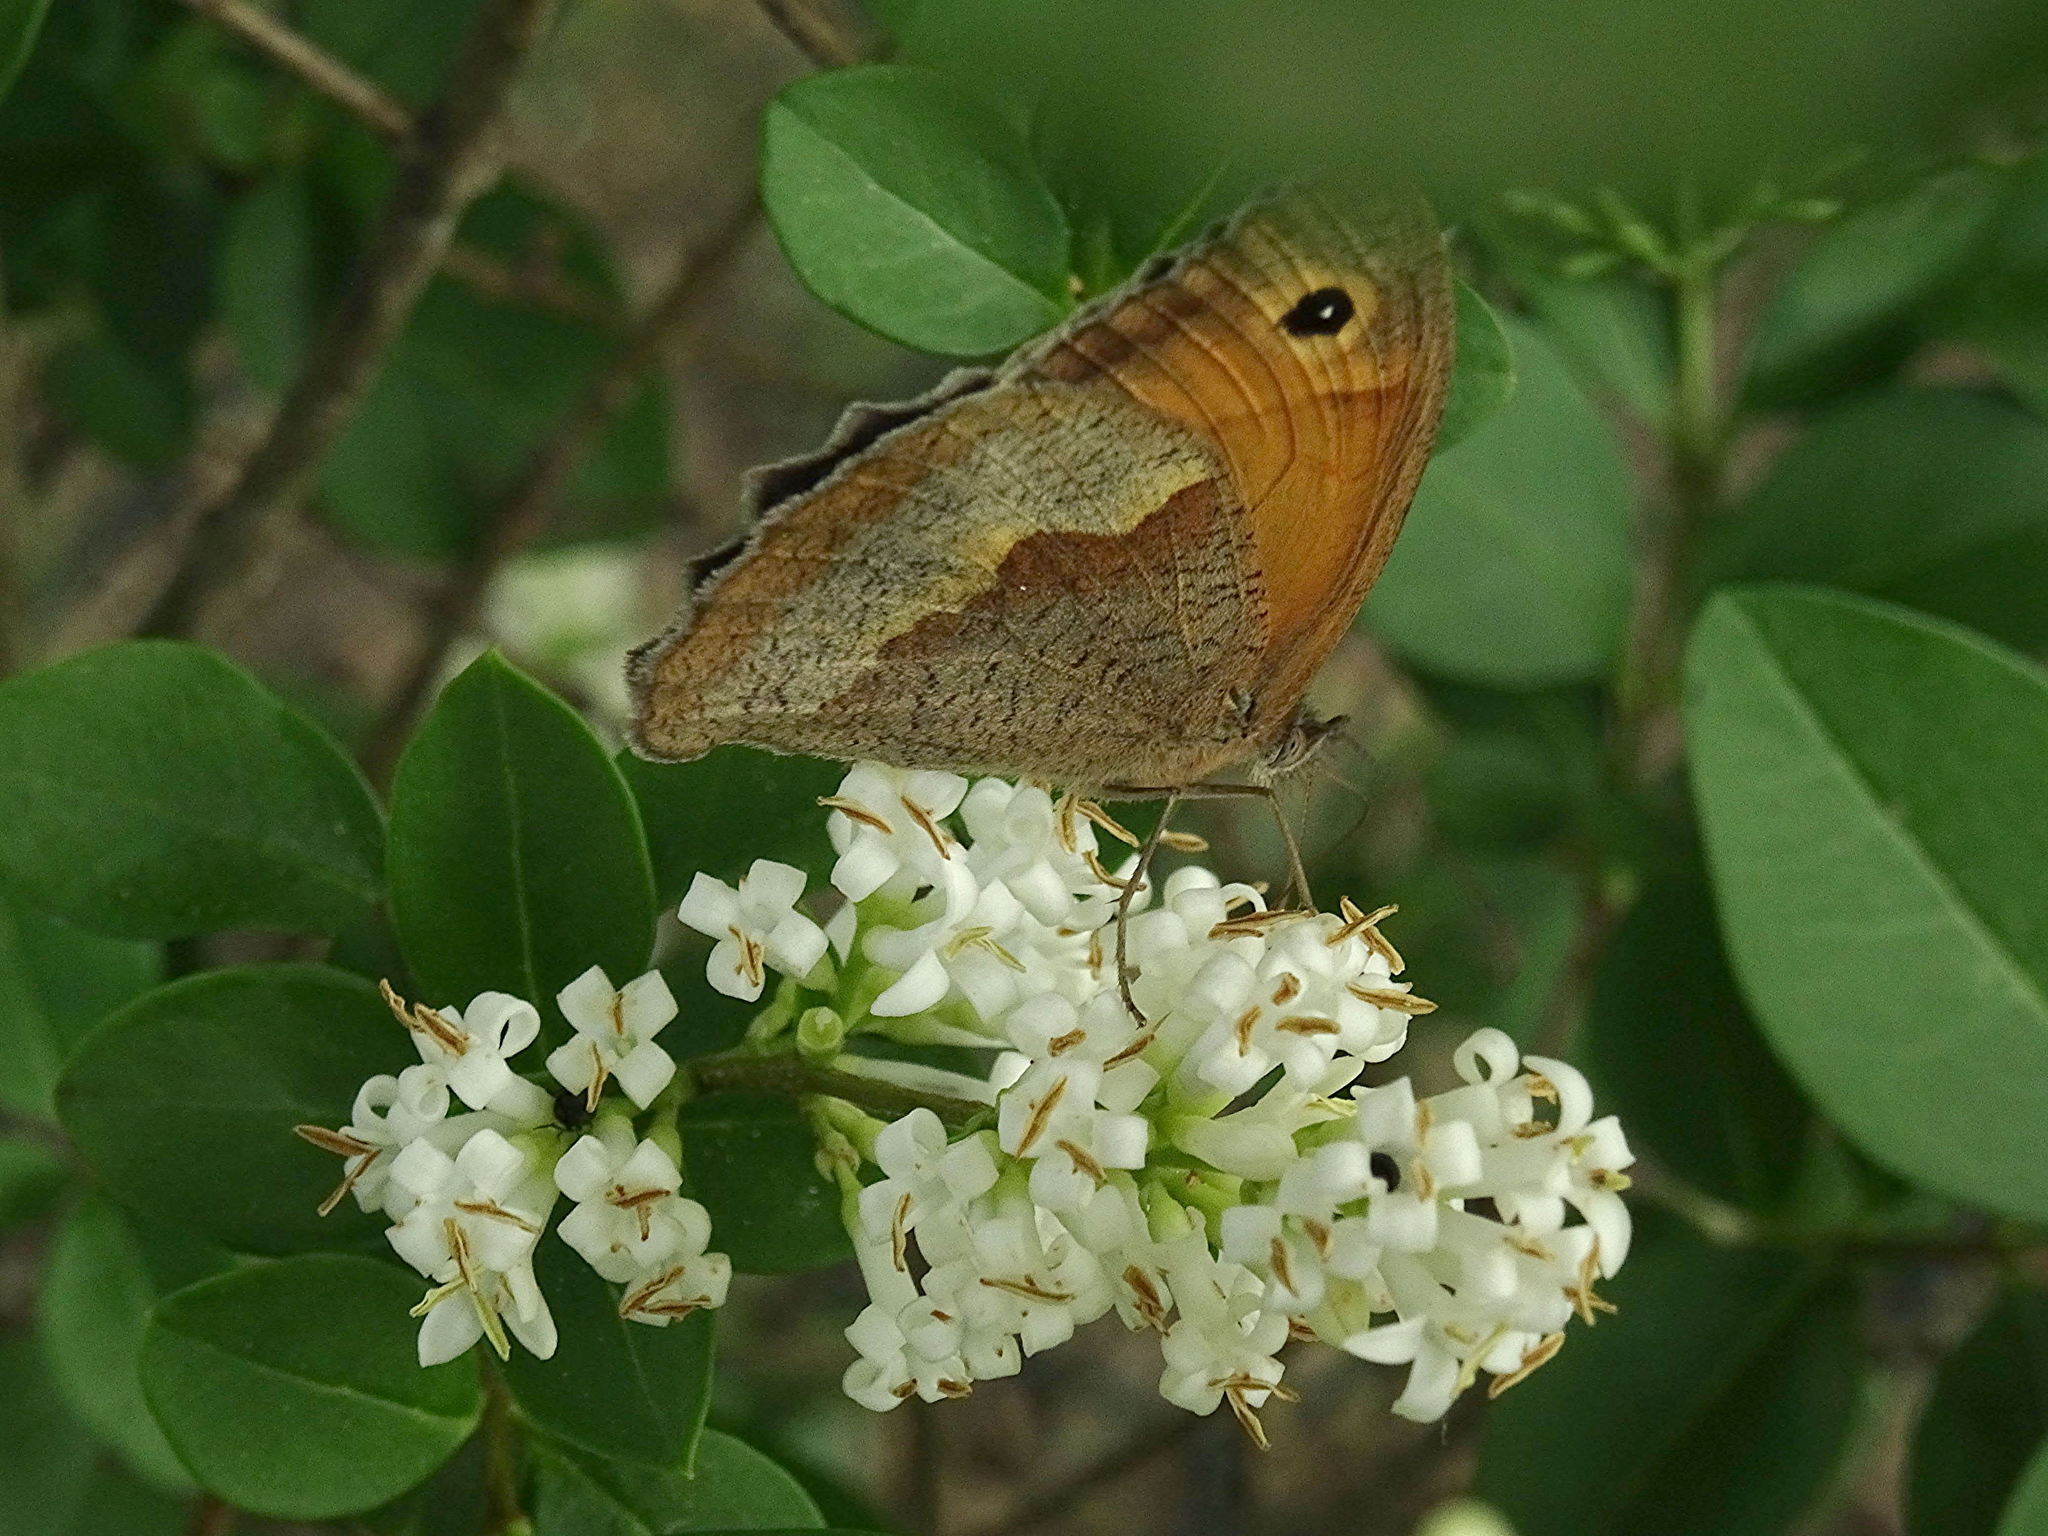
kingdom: Animalia
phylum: Arthropoda
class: Insecta
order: Lepidoptera
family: Nymphalidae
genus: Maniola
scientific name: Maniola jurtina
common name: Meadow brown
